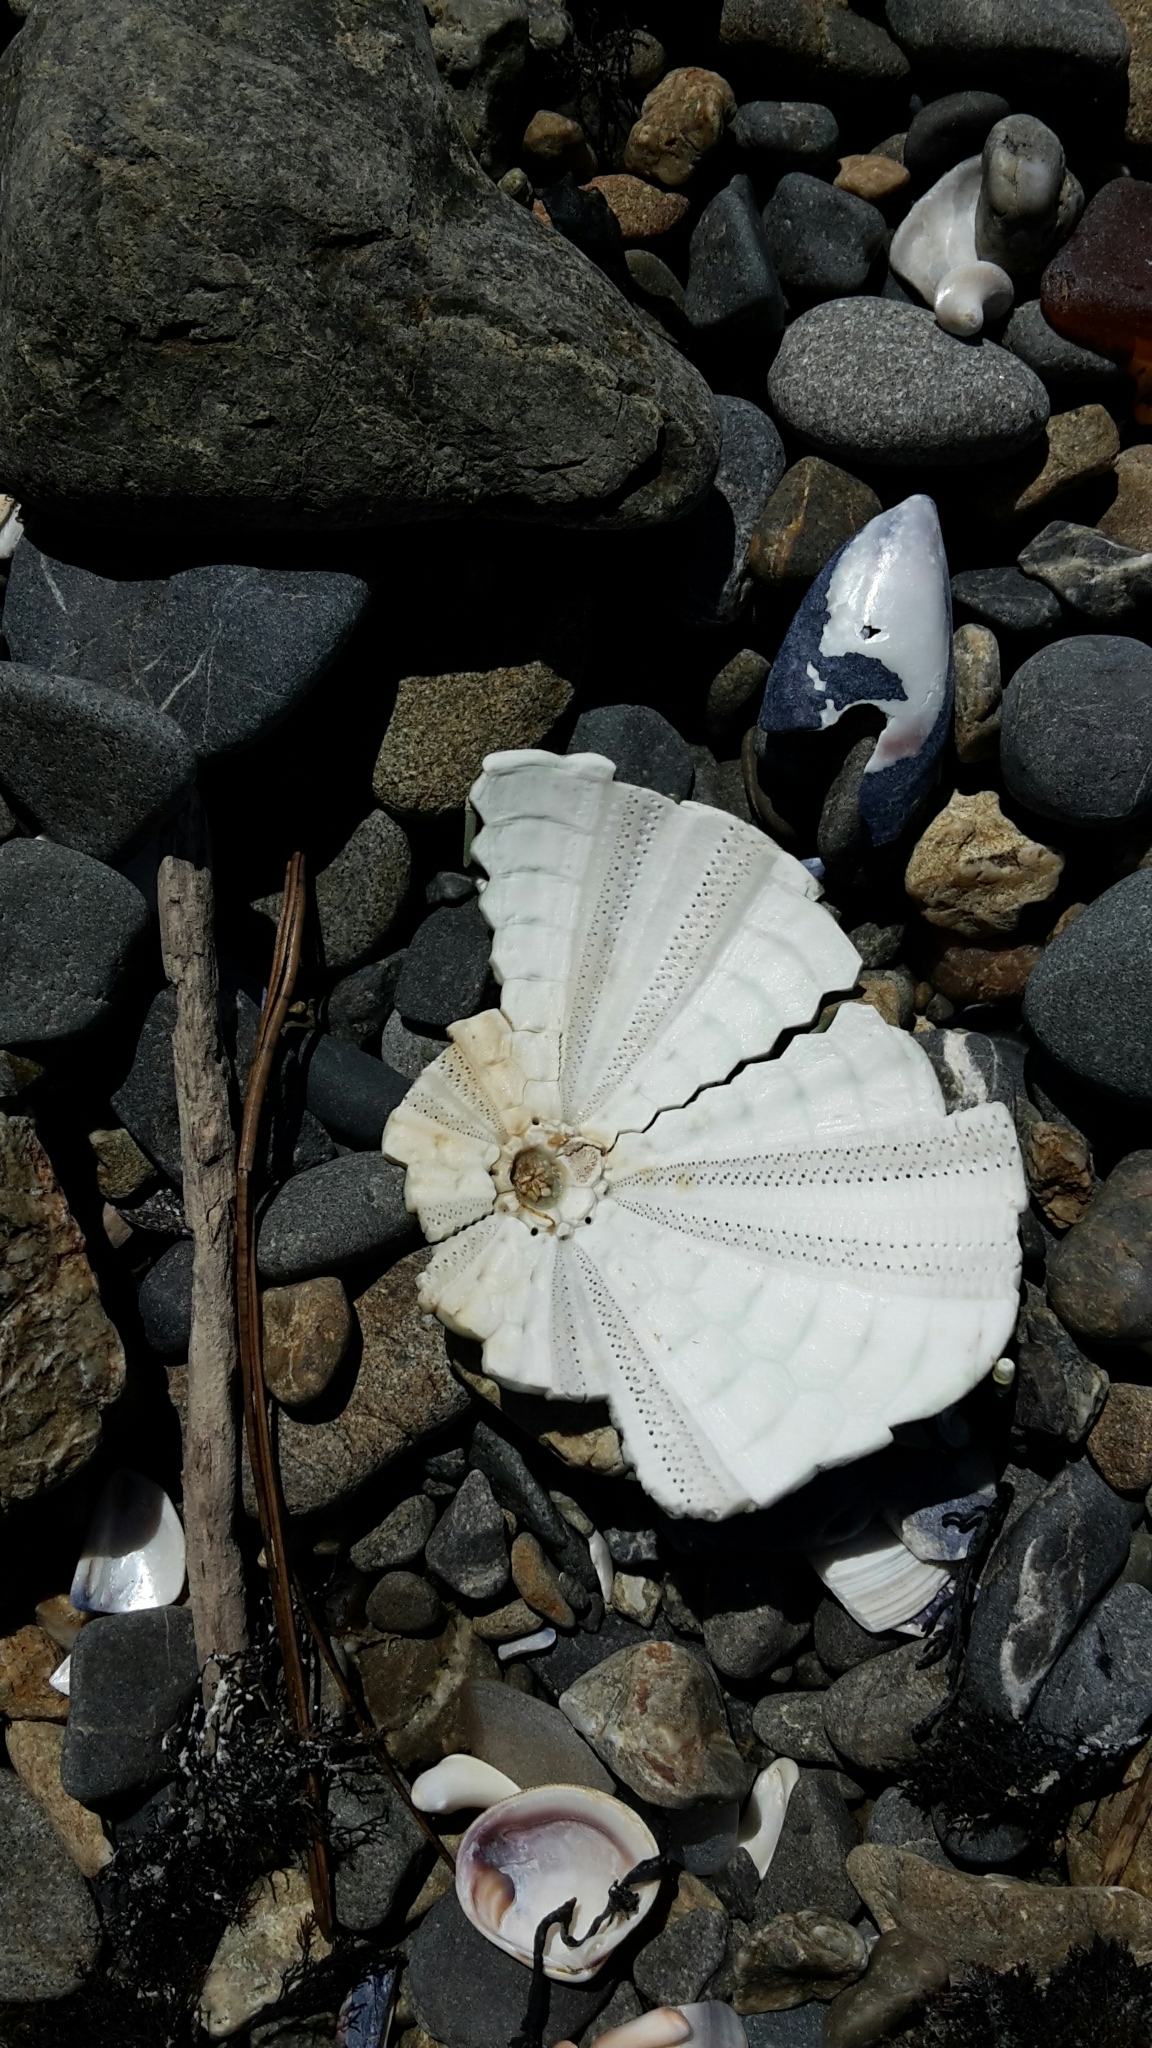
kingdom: Animalia
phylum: Echinodermata
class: Echinoidea
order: Camarodonta
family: Echinometridae
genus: Evechinus
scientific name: Evechinus chloroticus
